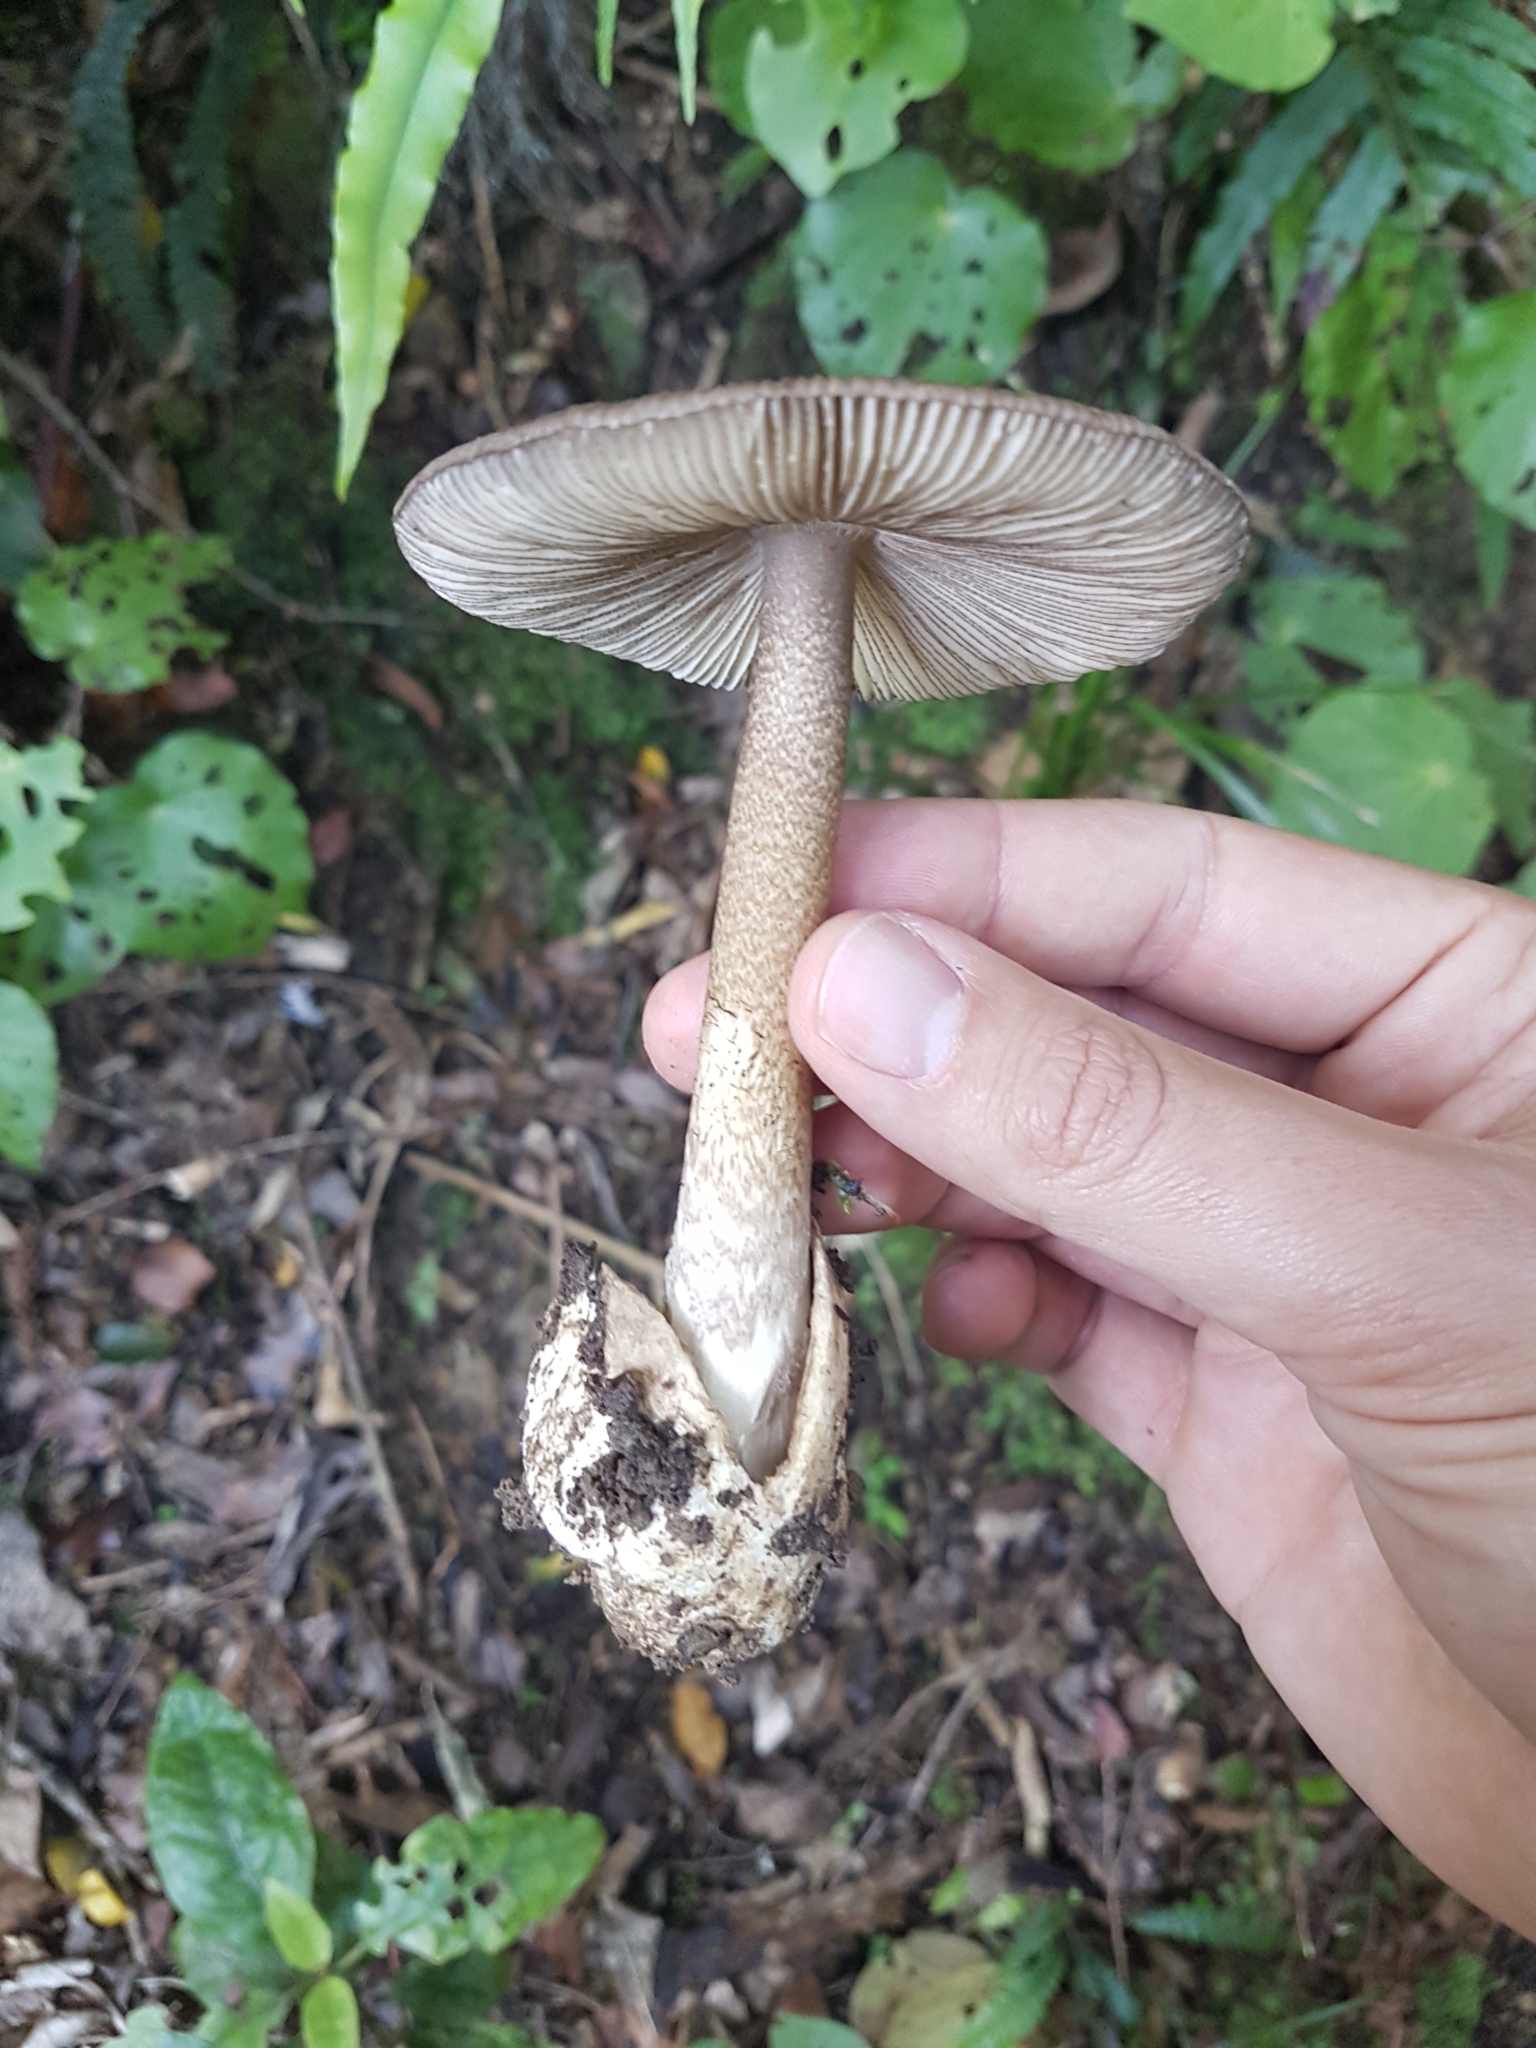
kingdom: Fungi
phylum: Basidiomycota
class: Agaricomycetes
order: Agaricales
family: Amanitaceae
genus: Amanita
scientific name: Amanita pekeoides
